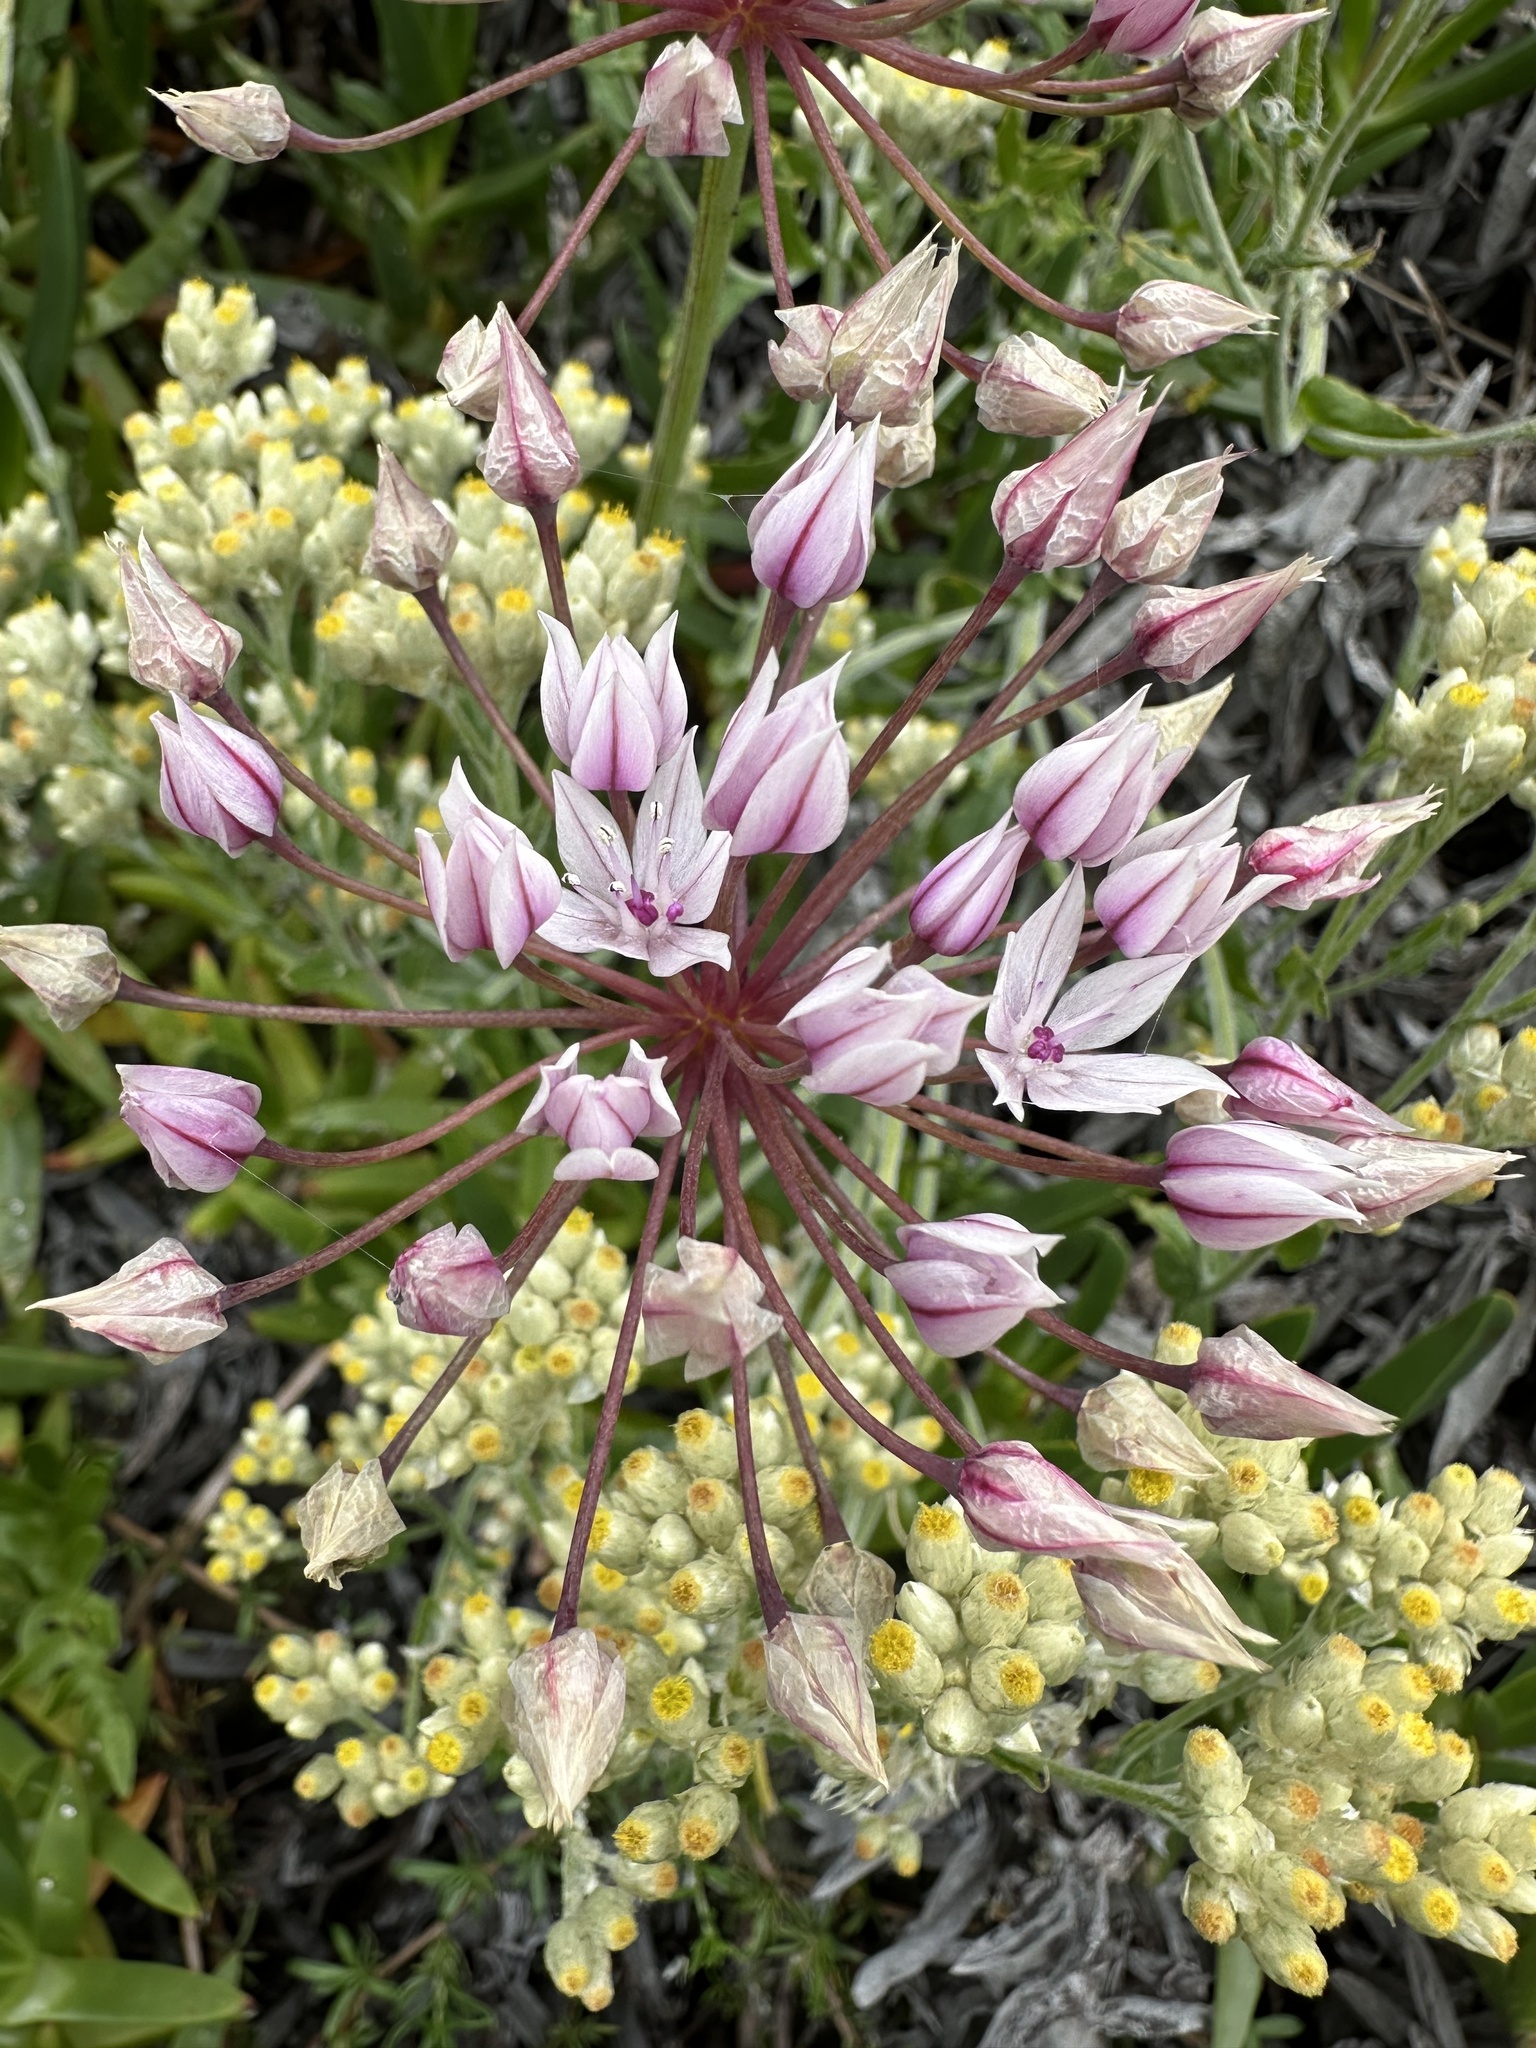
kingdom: Plantae
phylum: Tracheophyta
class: Liliopsida
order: Asparagales
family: Amaryllidaceae
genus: Allium
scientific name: Allium praecox
